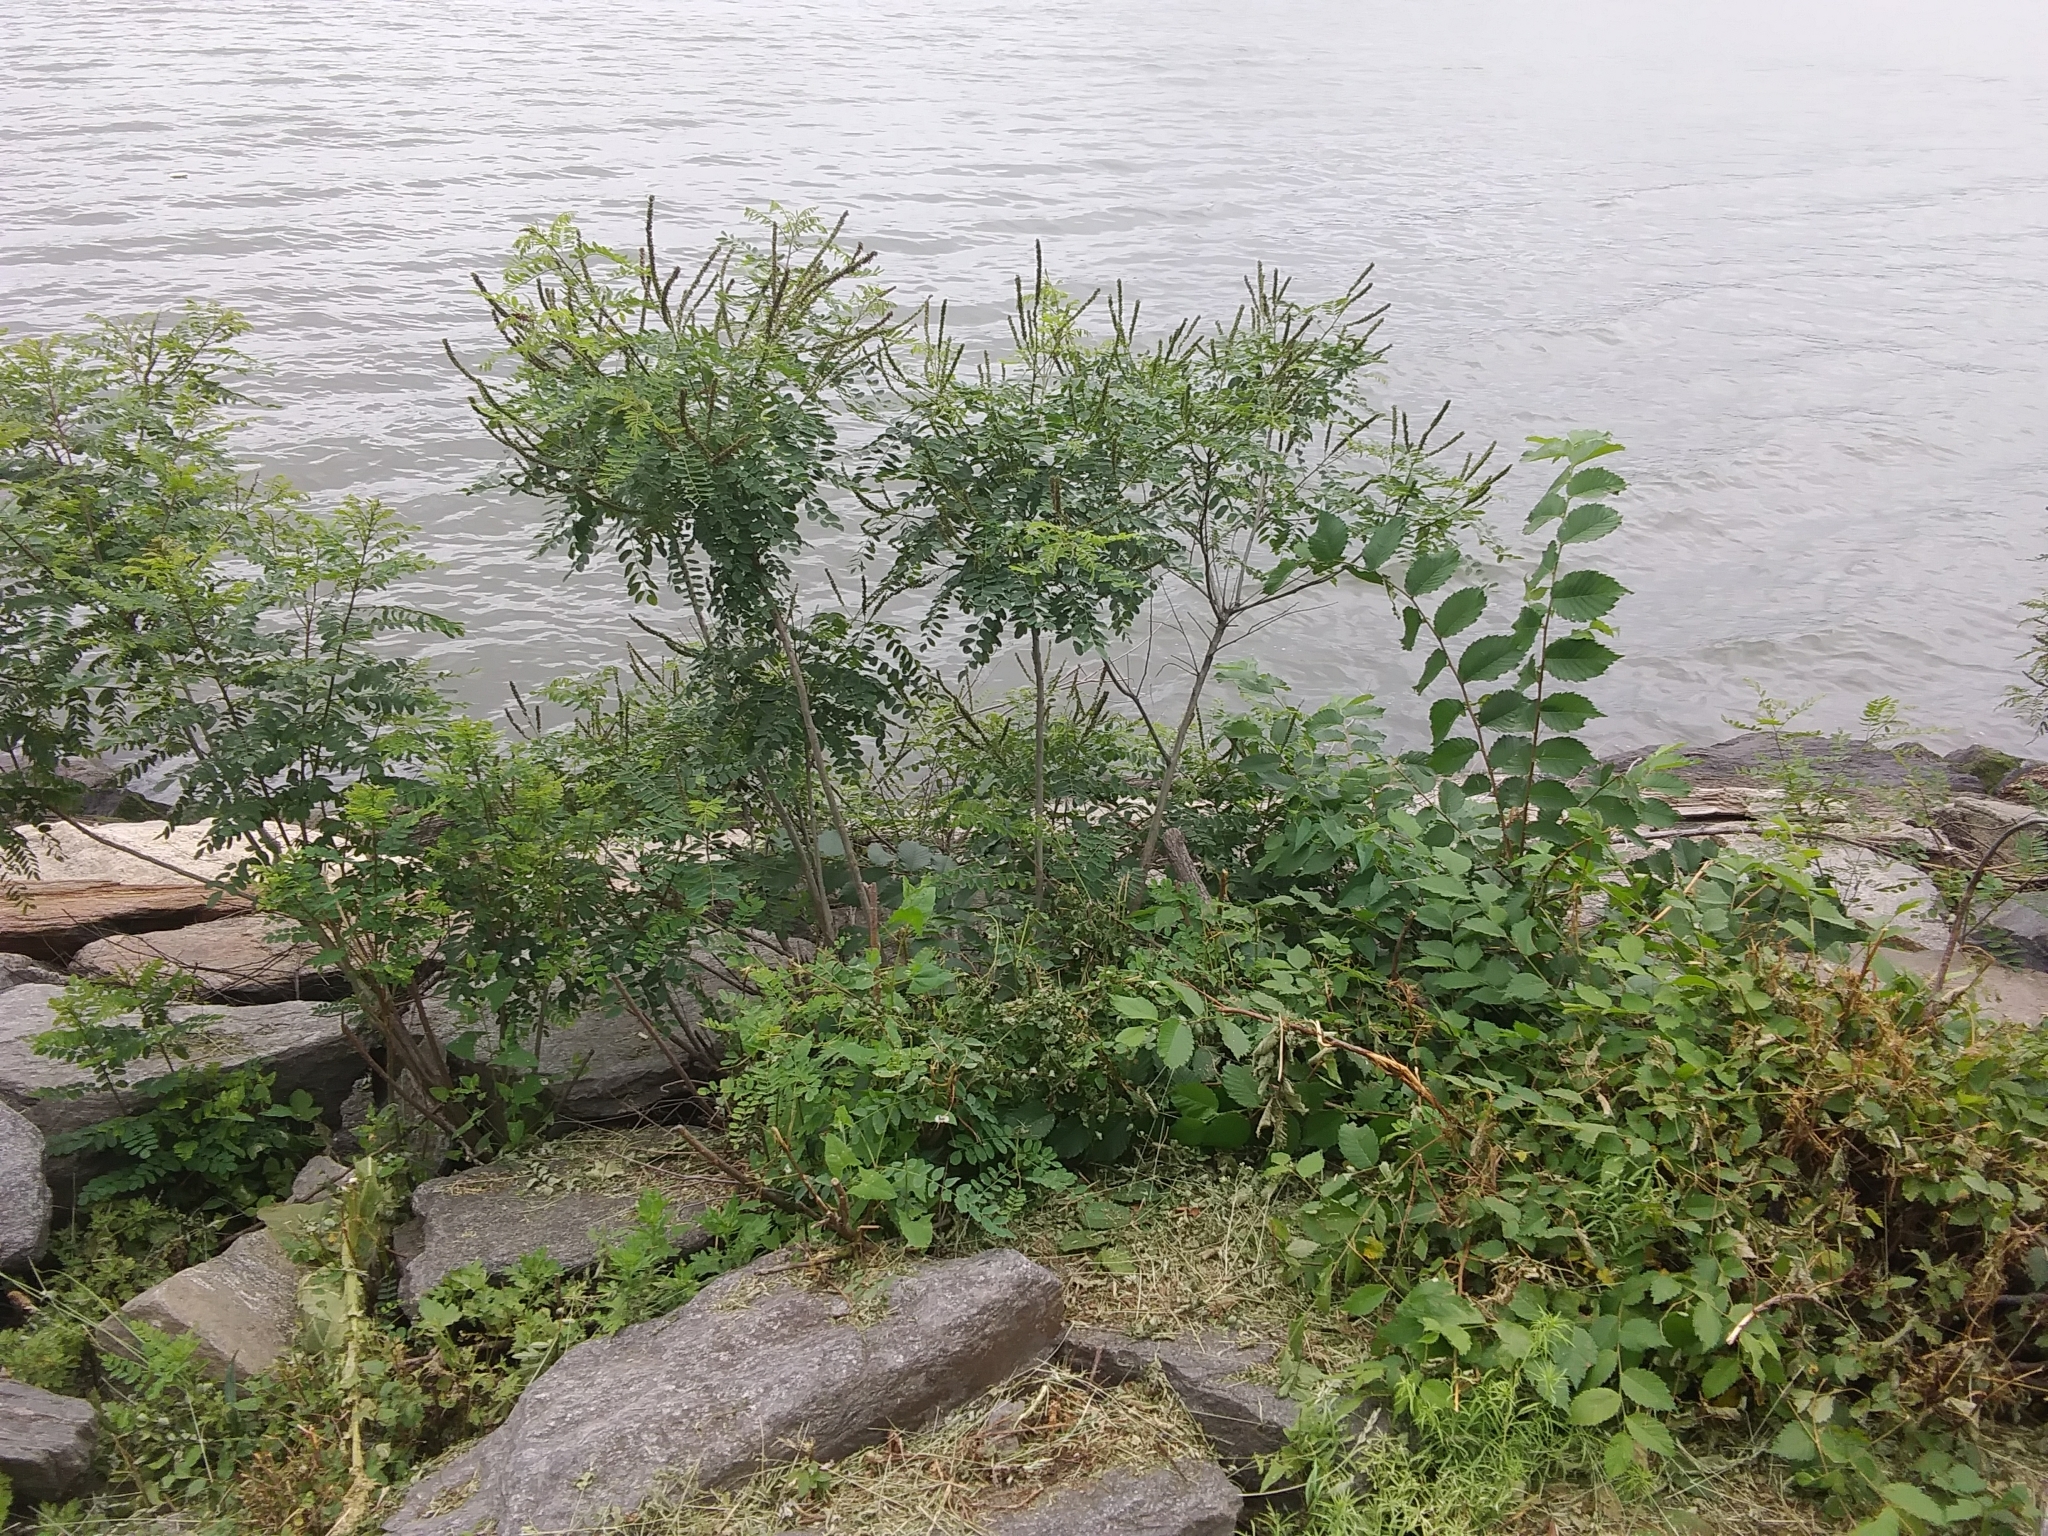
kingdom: Plantae
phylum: Tracheophyta
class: Magnoliopsida
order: Fabales
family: Fabaceae
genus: Amorpha
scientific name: Amorpha fruticosa
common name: False indigo
